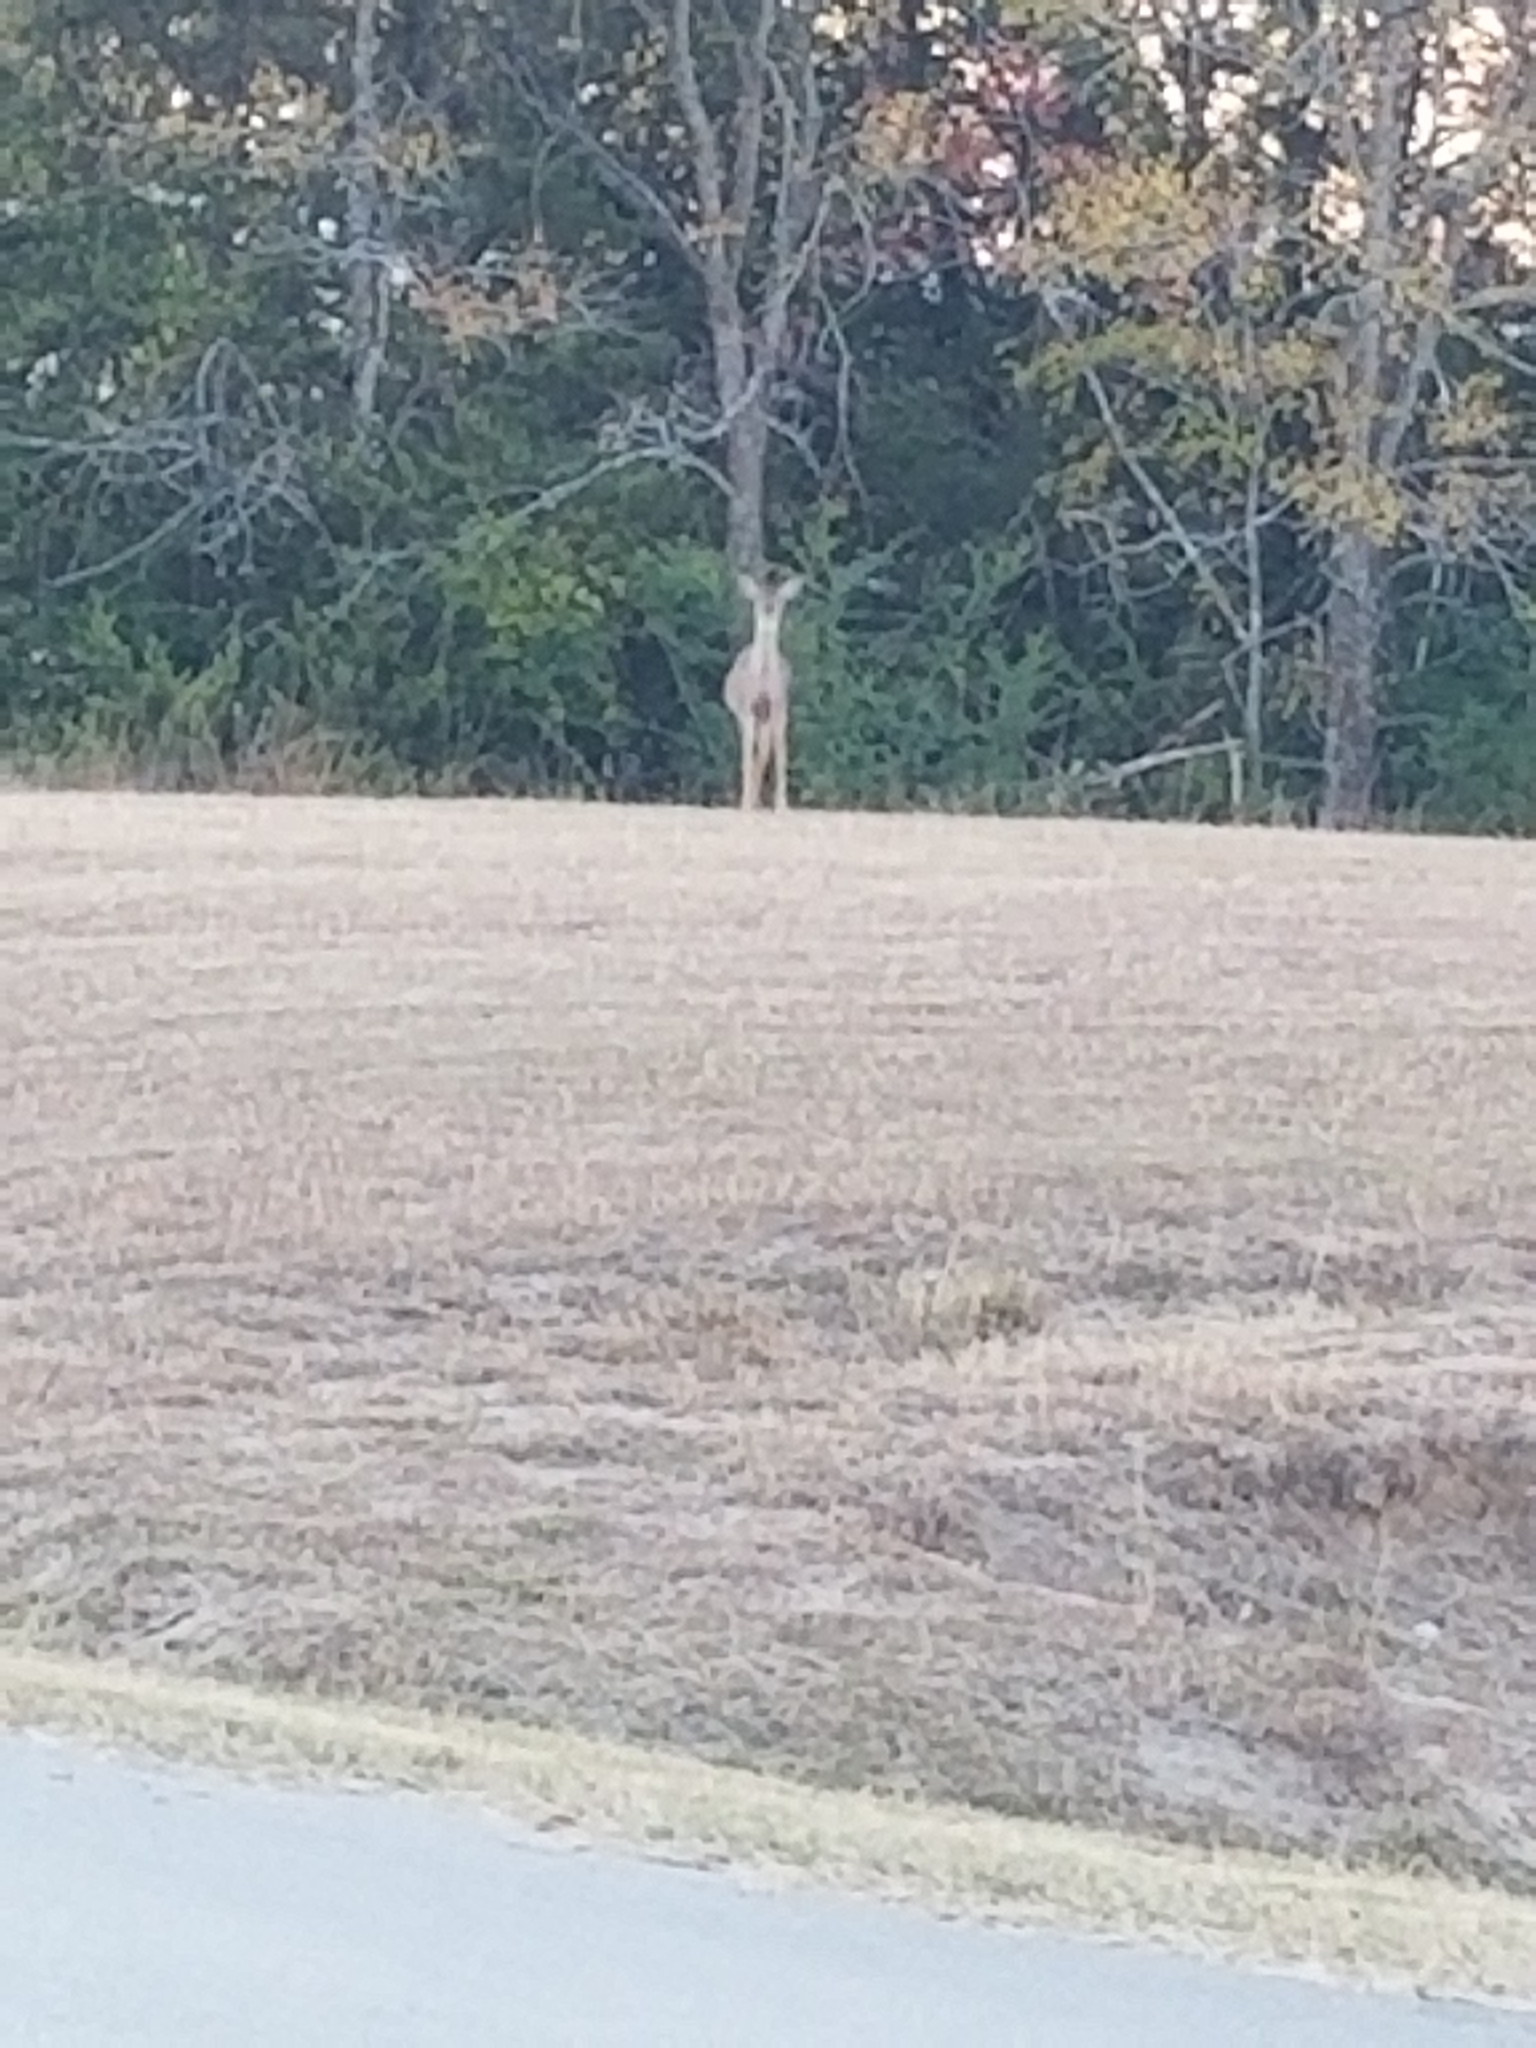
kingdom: Animalia
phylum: Chordata
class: Mammalia
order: Artiodactyla
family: Cervidae
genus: Odocoileus
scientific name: Odocoileus virginianus
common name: White-tailed deer
